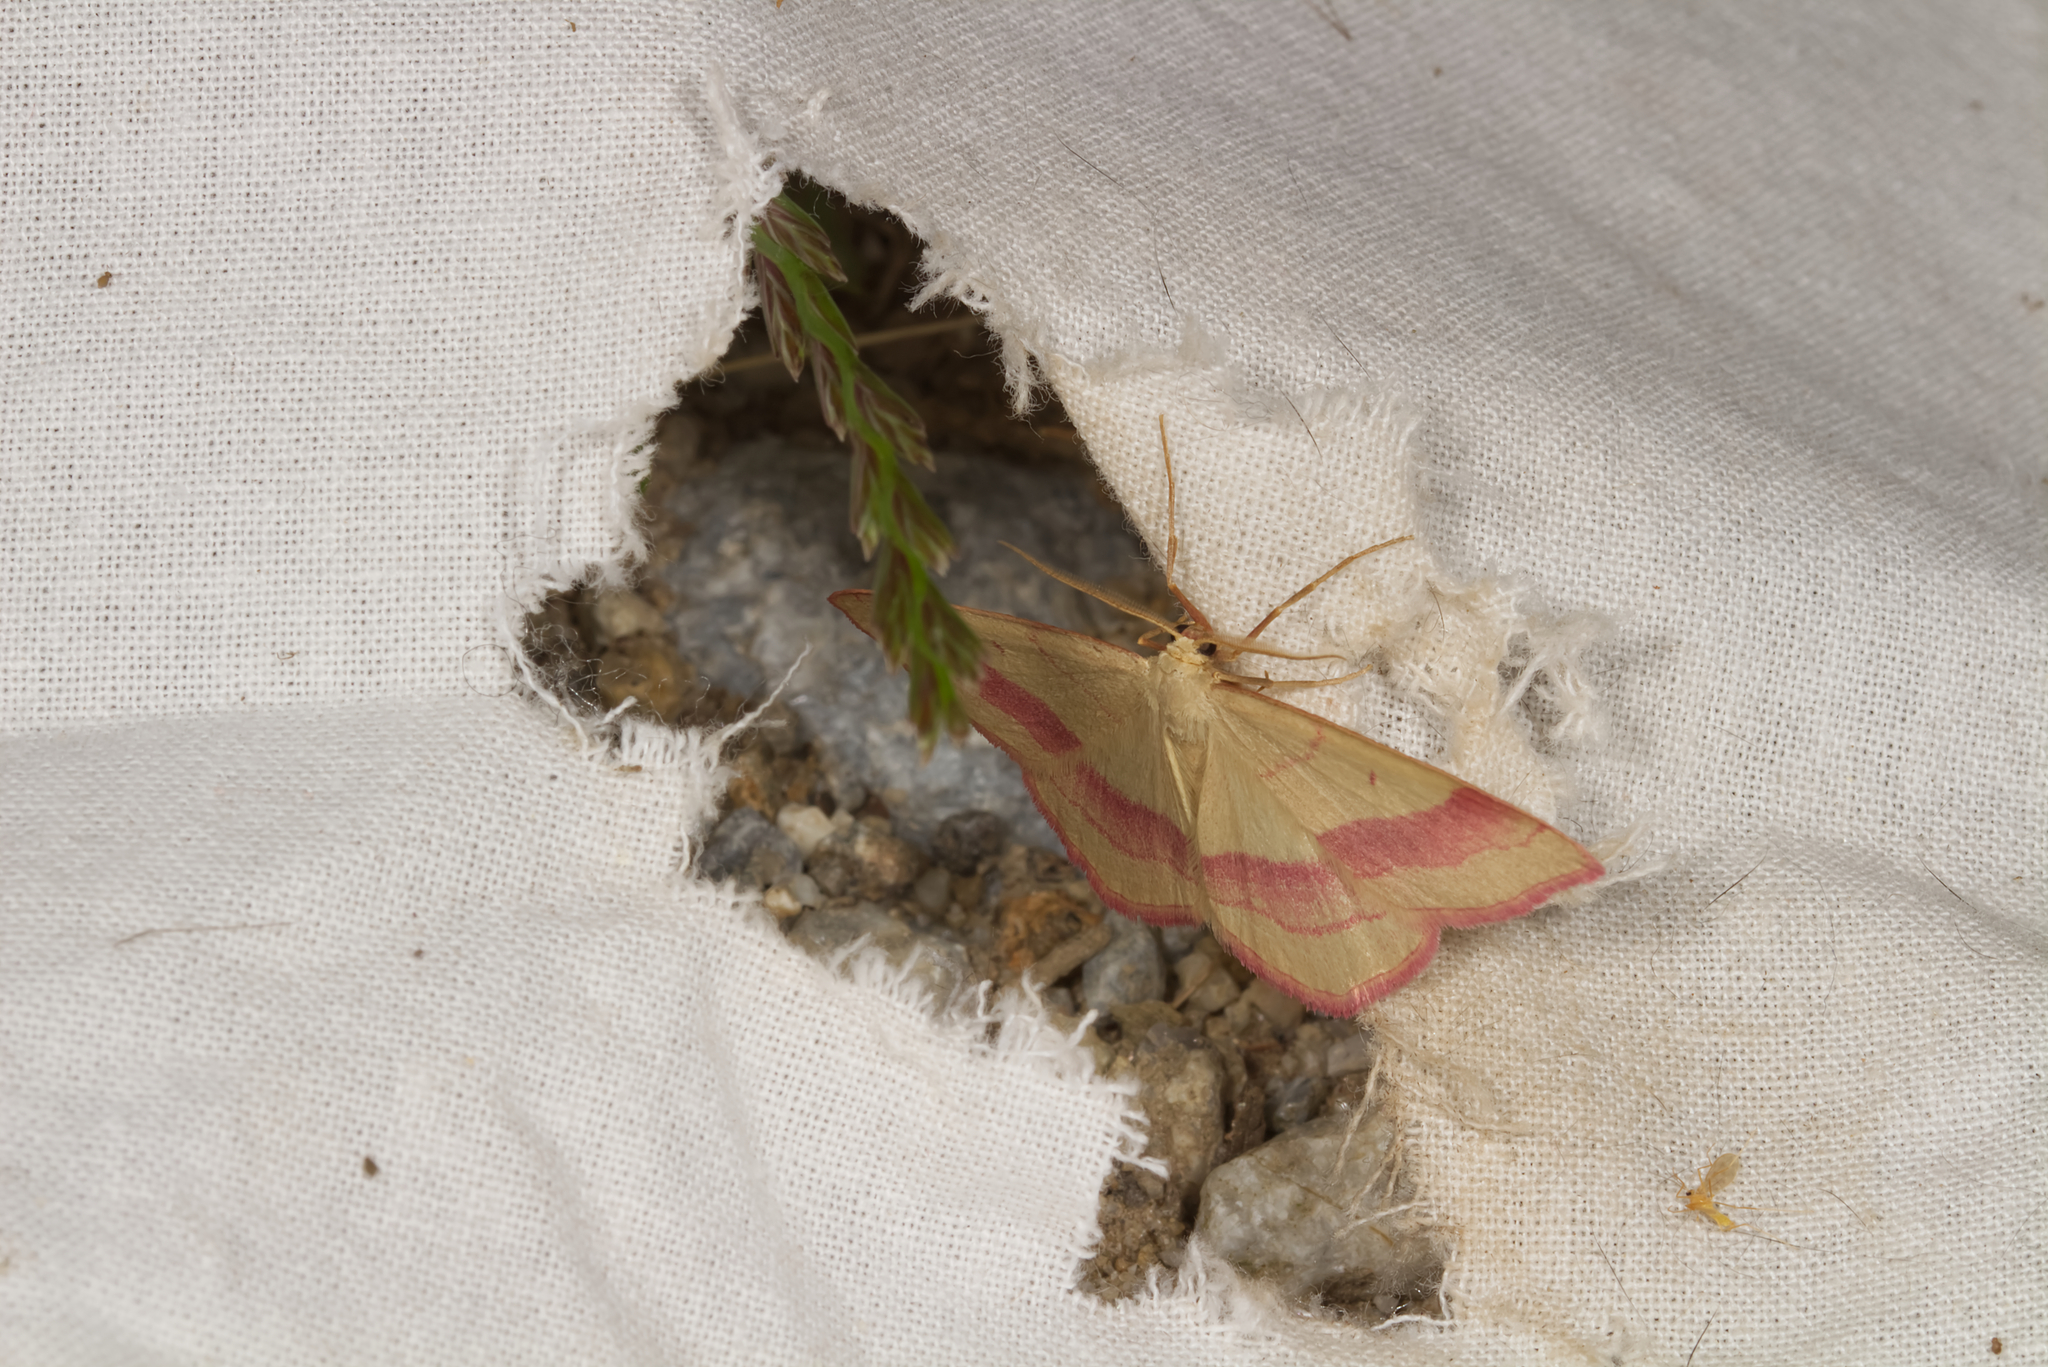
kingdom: Animalia
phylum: Arthropoda
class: Insecta
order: Lepidoptera
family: Geometridae
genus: Rhodostrophia
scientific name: Rhodostrophia vibicaria
